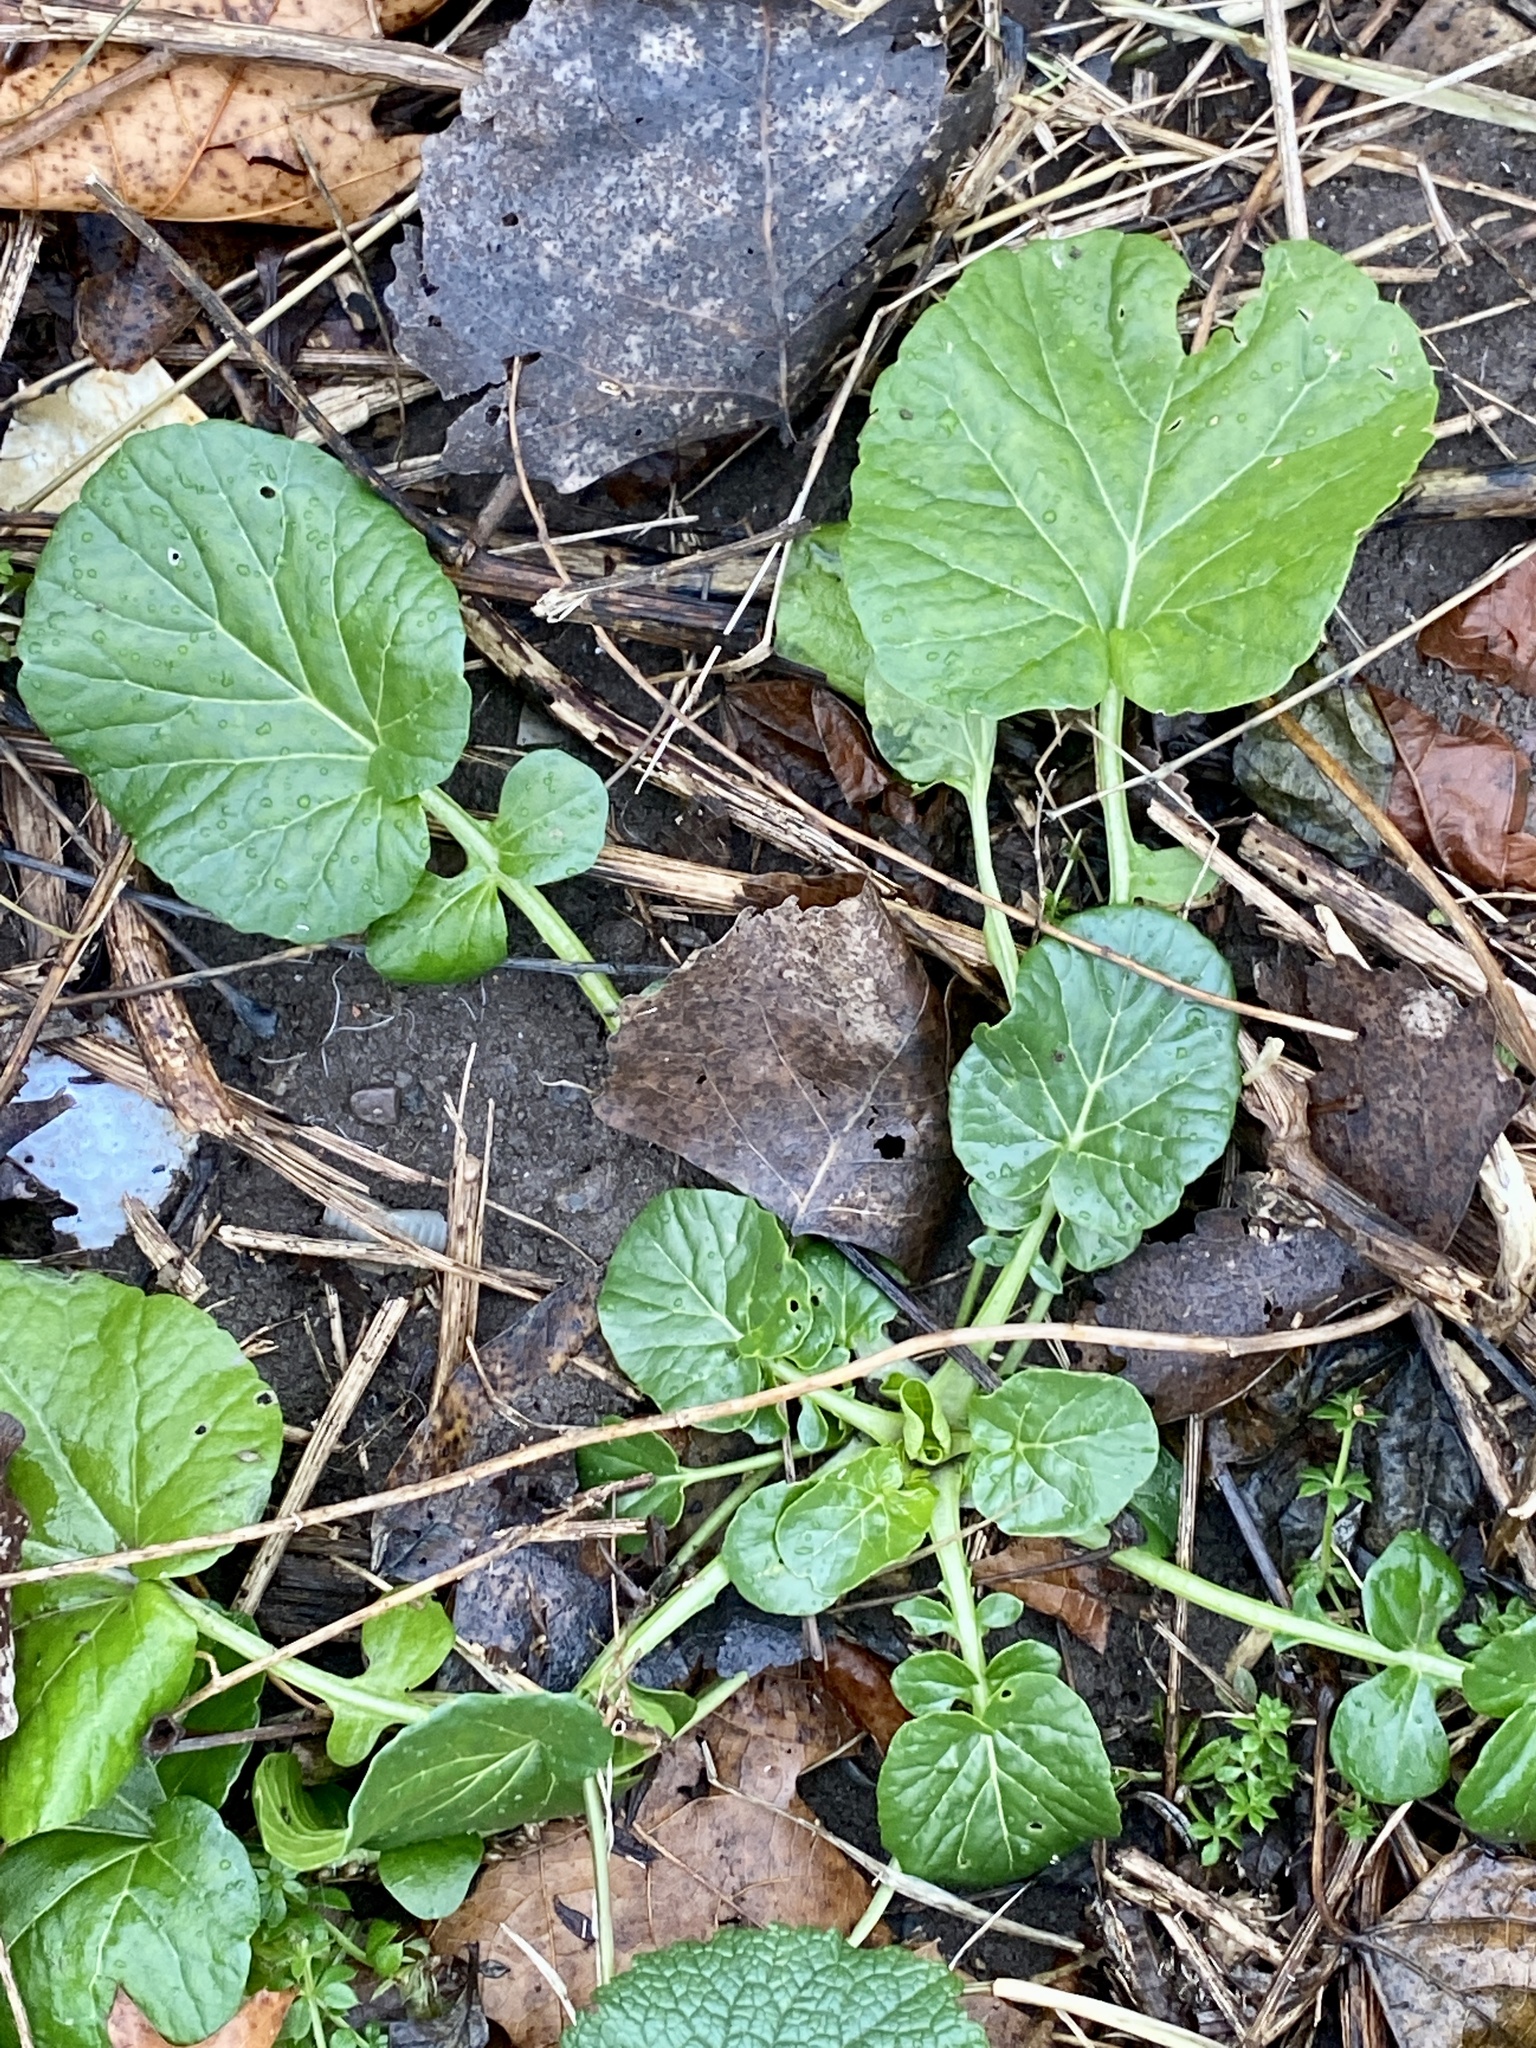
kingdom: Plantae
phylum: Tracheophyta
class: Magnoliopsida
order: Brassicales
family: Brassicaceae
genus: Barbarea
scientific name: Barbarea vulgaris
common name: Cressy-greens
